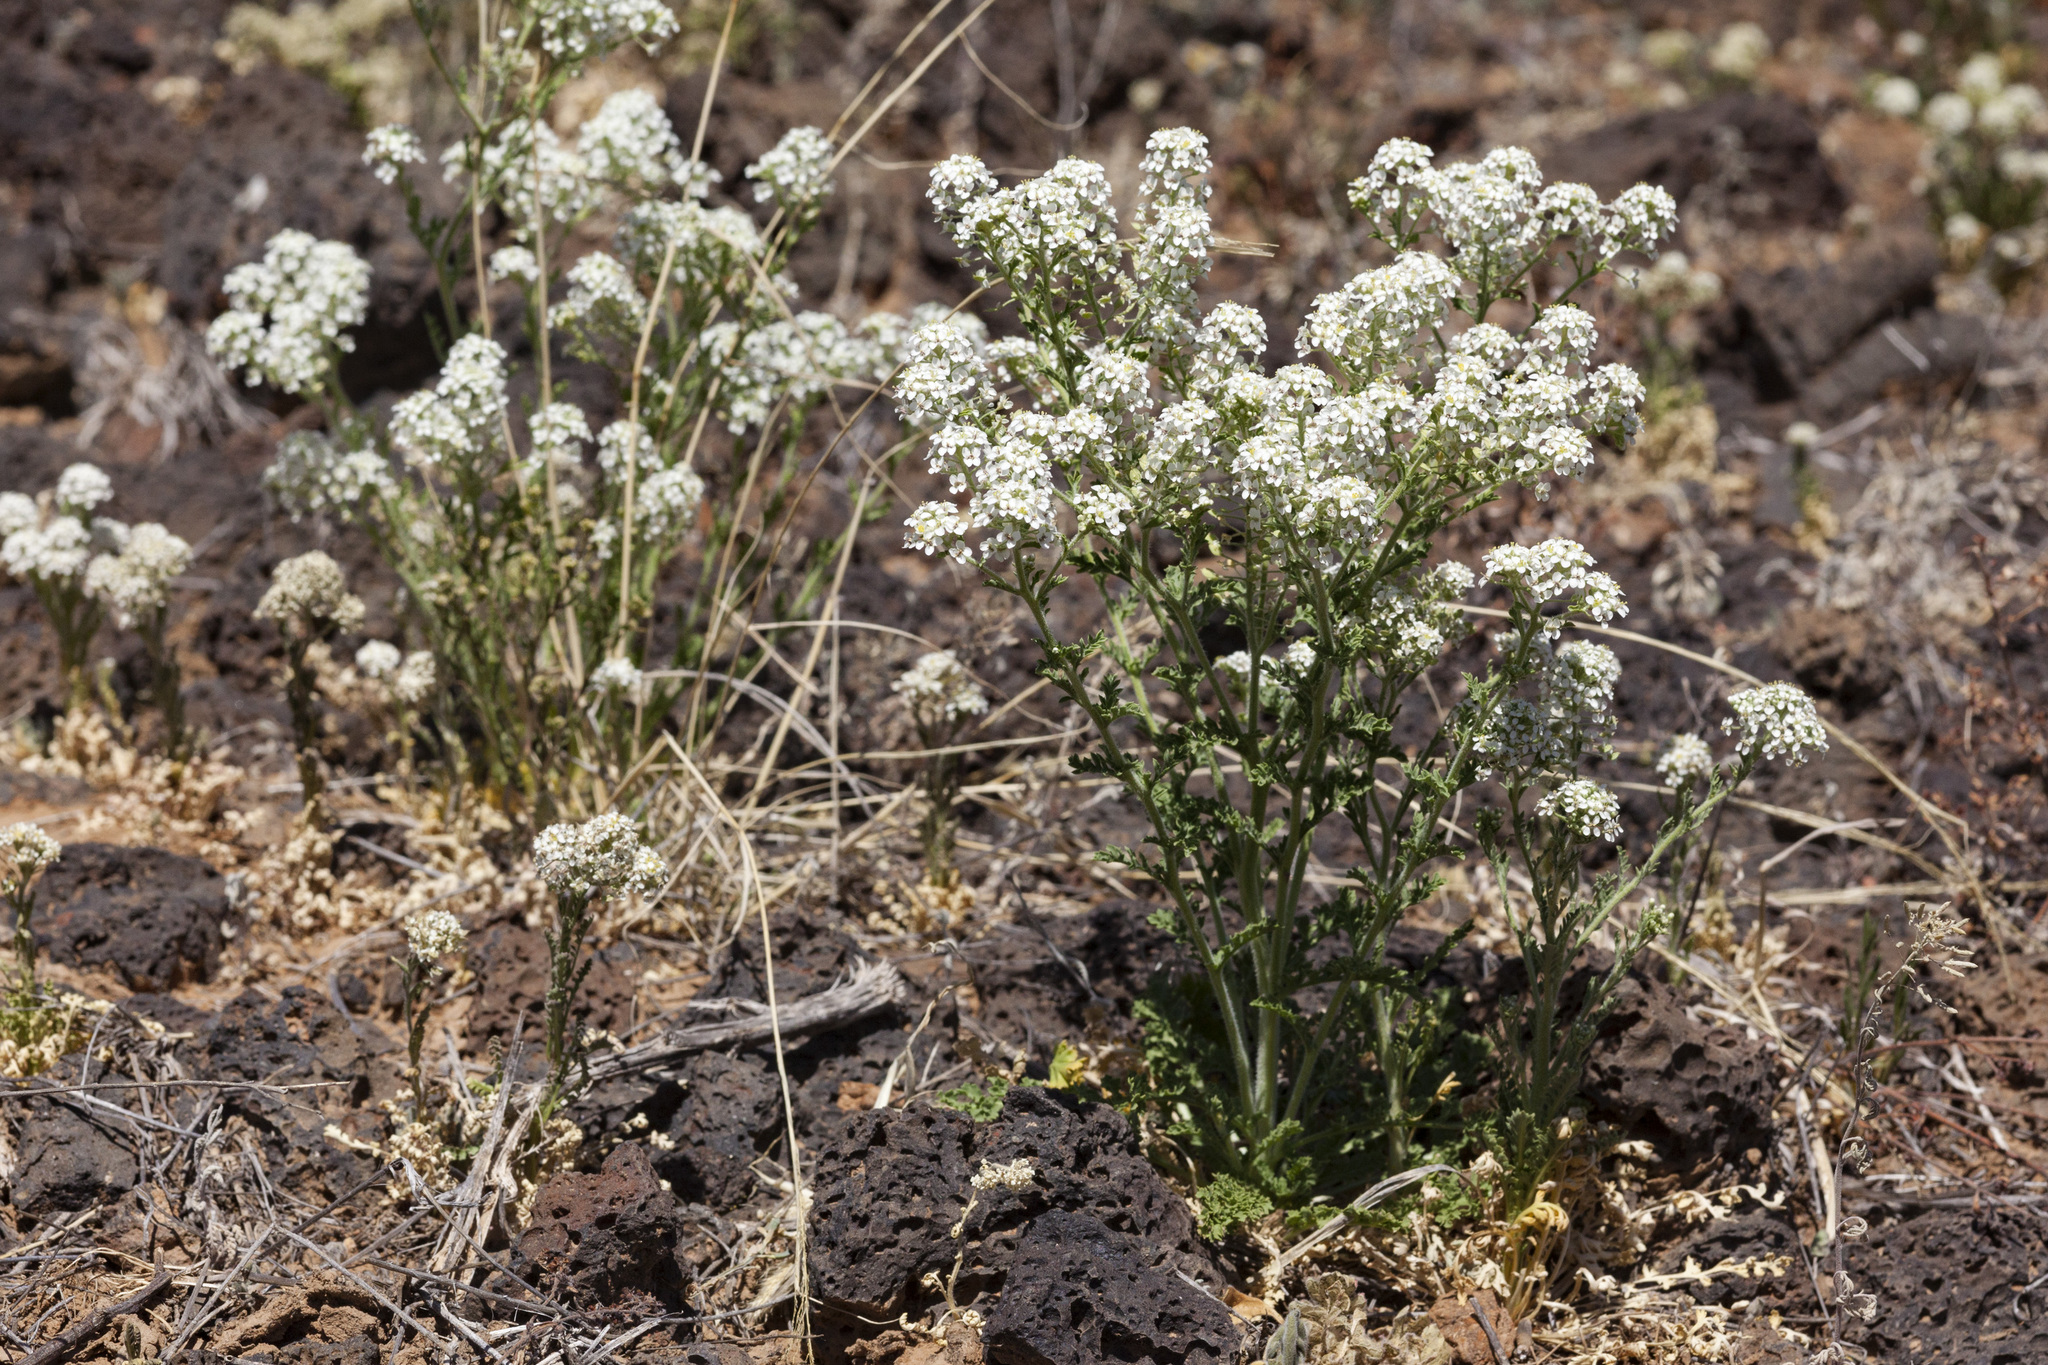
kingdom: Plantae
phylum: Tracheophyta
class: Magnoliopsida
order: Brassicales
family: Brassicaceae
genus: Lepidium
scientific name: Lepidium thurberi
